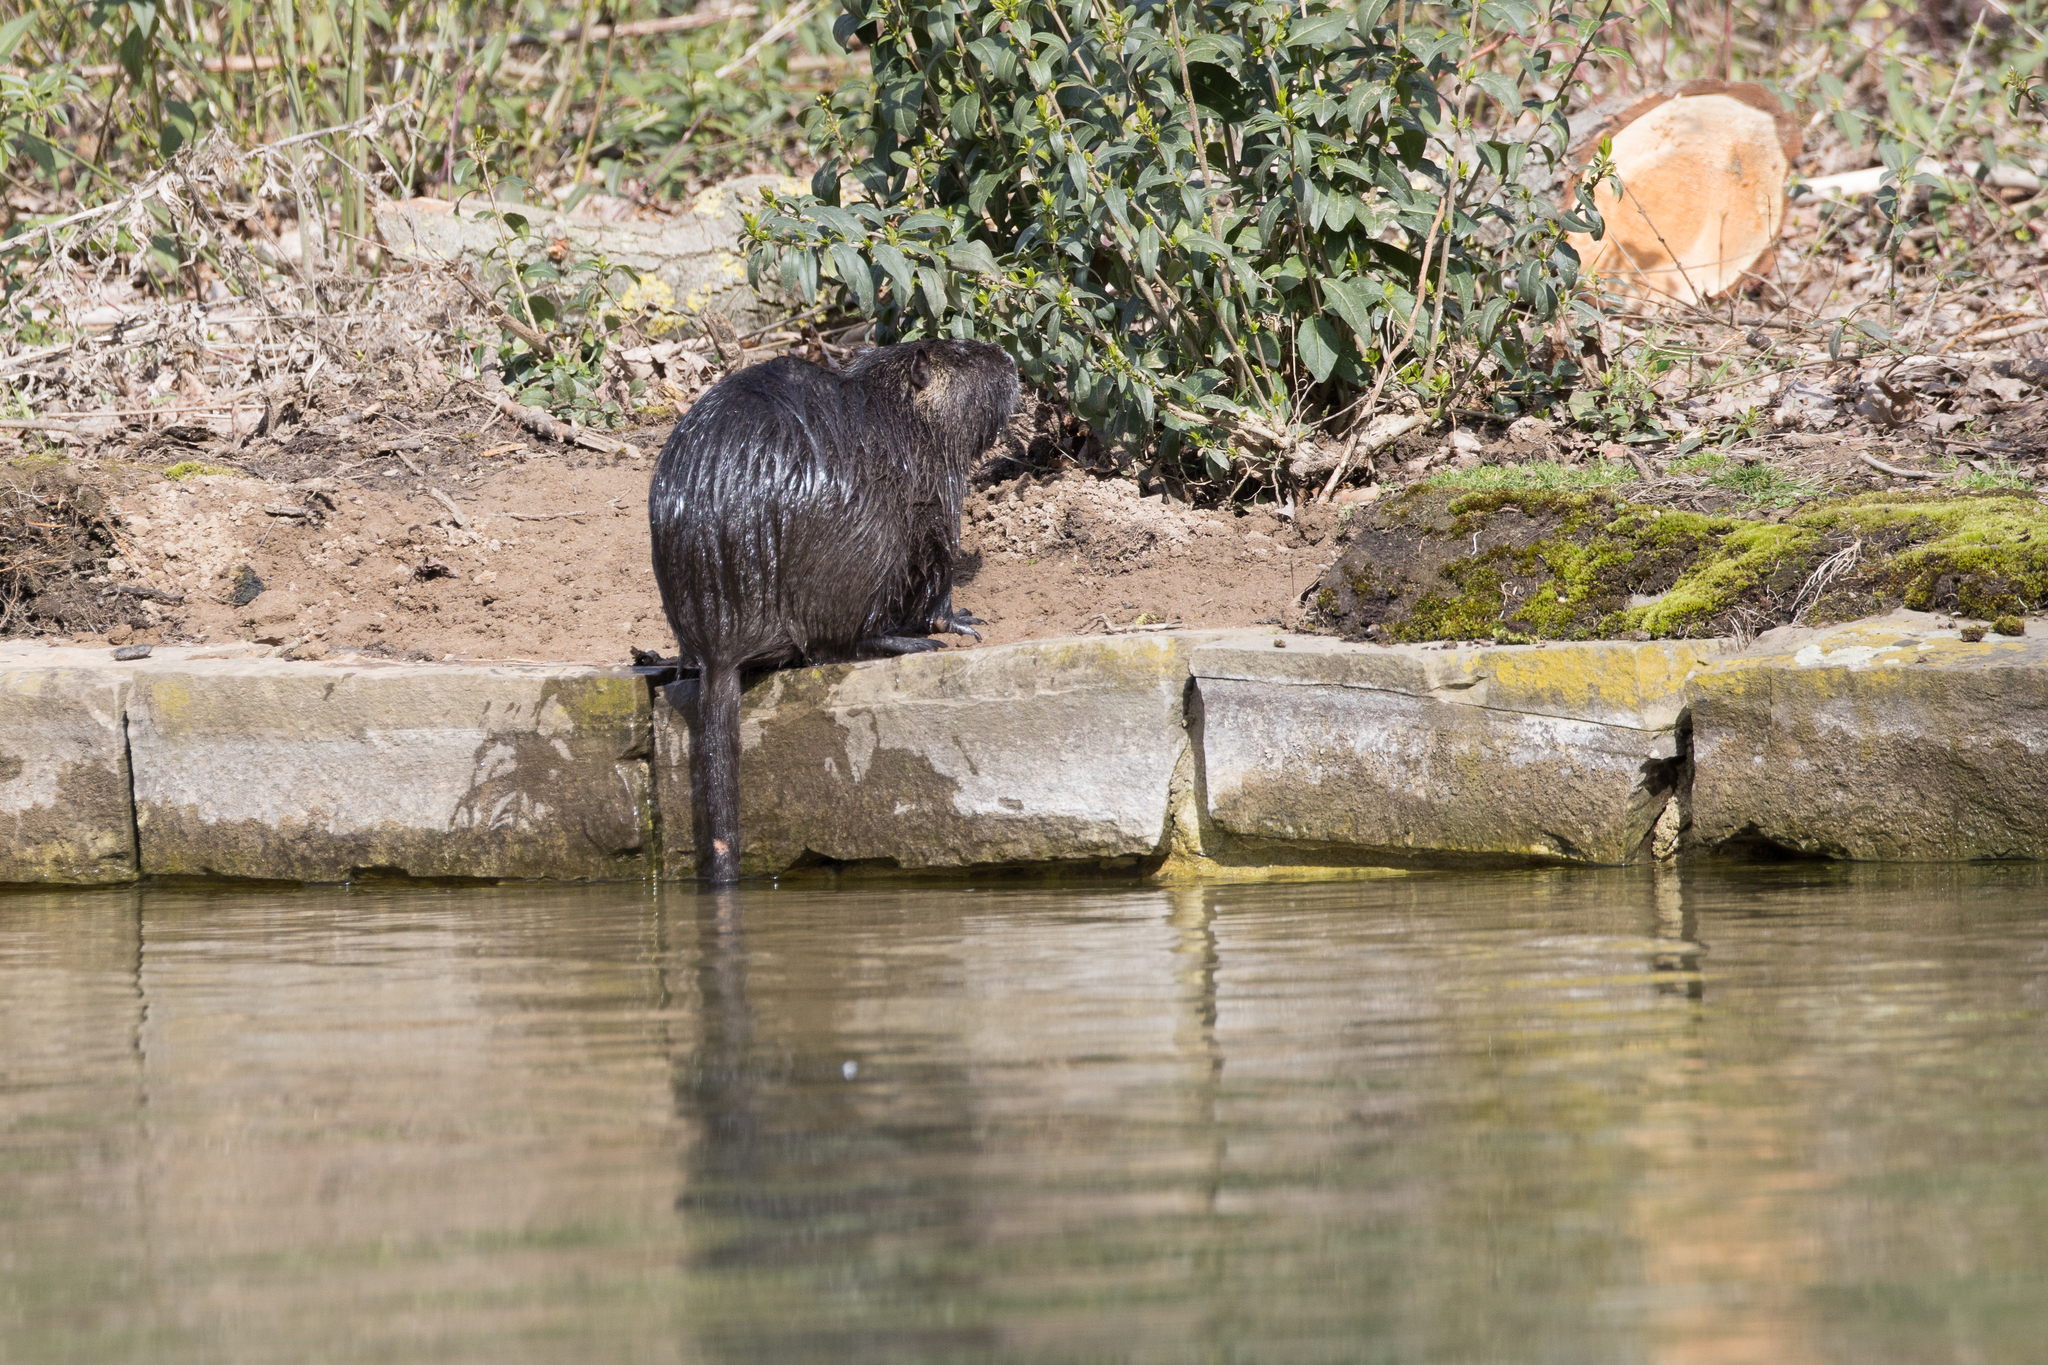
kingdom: Animalia
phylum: Chordata
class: Mammalia
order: Rodentia
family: Myocastoridae
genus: Myocastor
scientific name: Myocastor coypus
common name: Coypu
